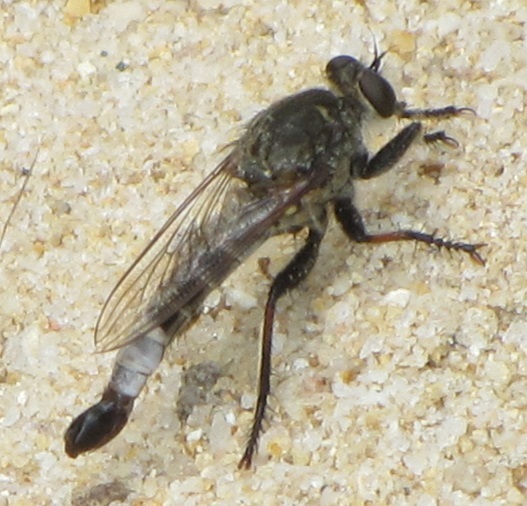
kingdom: Animalia
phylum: Arthropoda
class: Insecta
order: Diptera
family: Asilidae
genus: Efferia
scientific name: Efferia albibarbis
